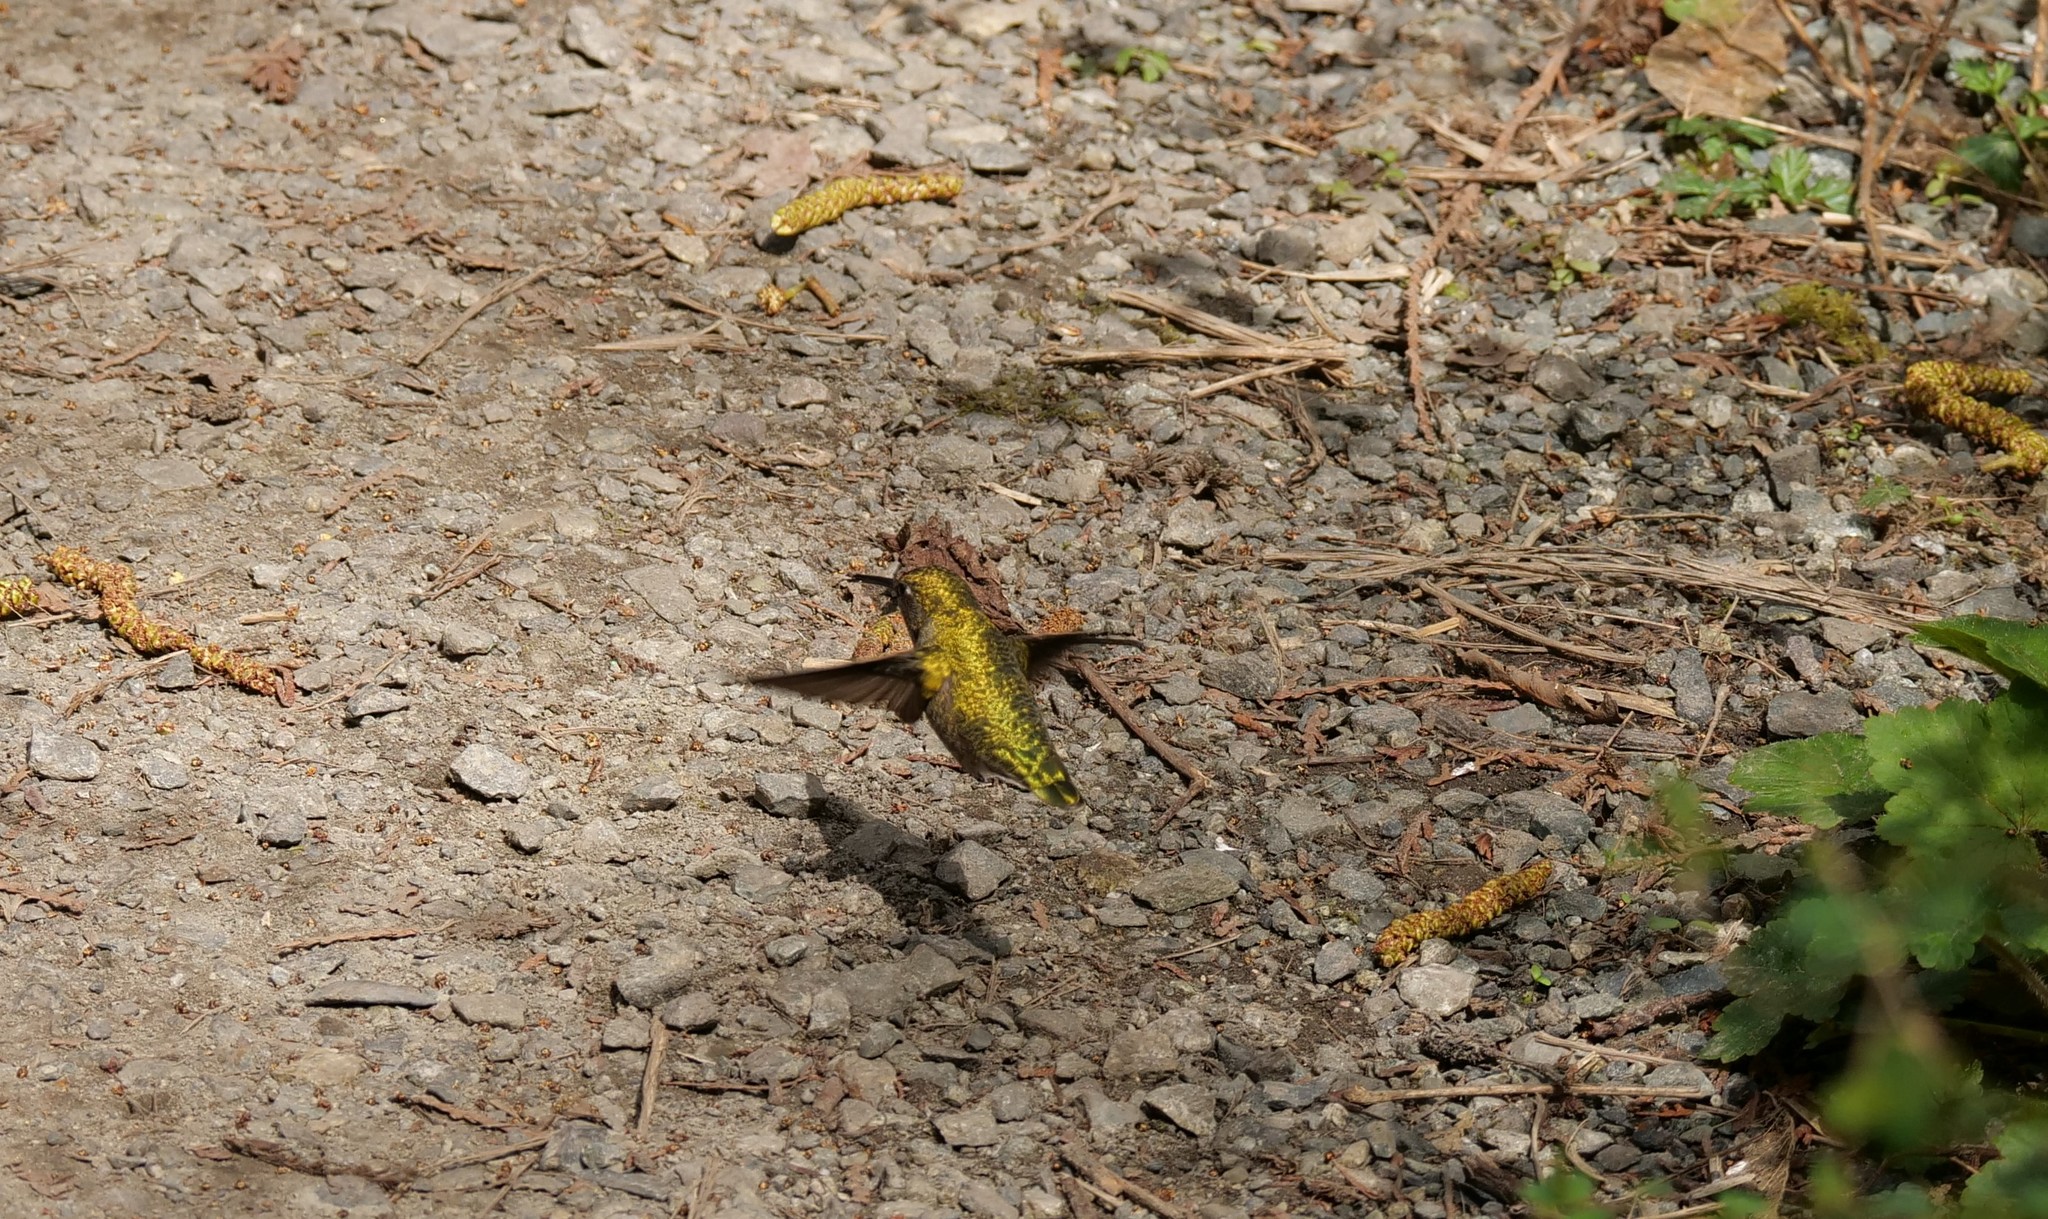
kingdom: Animalia
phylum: Chordata
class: Aves
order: Apodiformes
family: Trochilidae
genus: Calypte
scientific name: Calypte anna
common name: Anna's hummingbird
